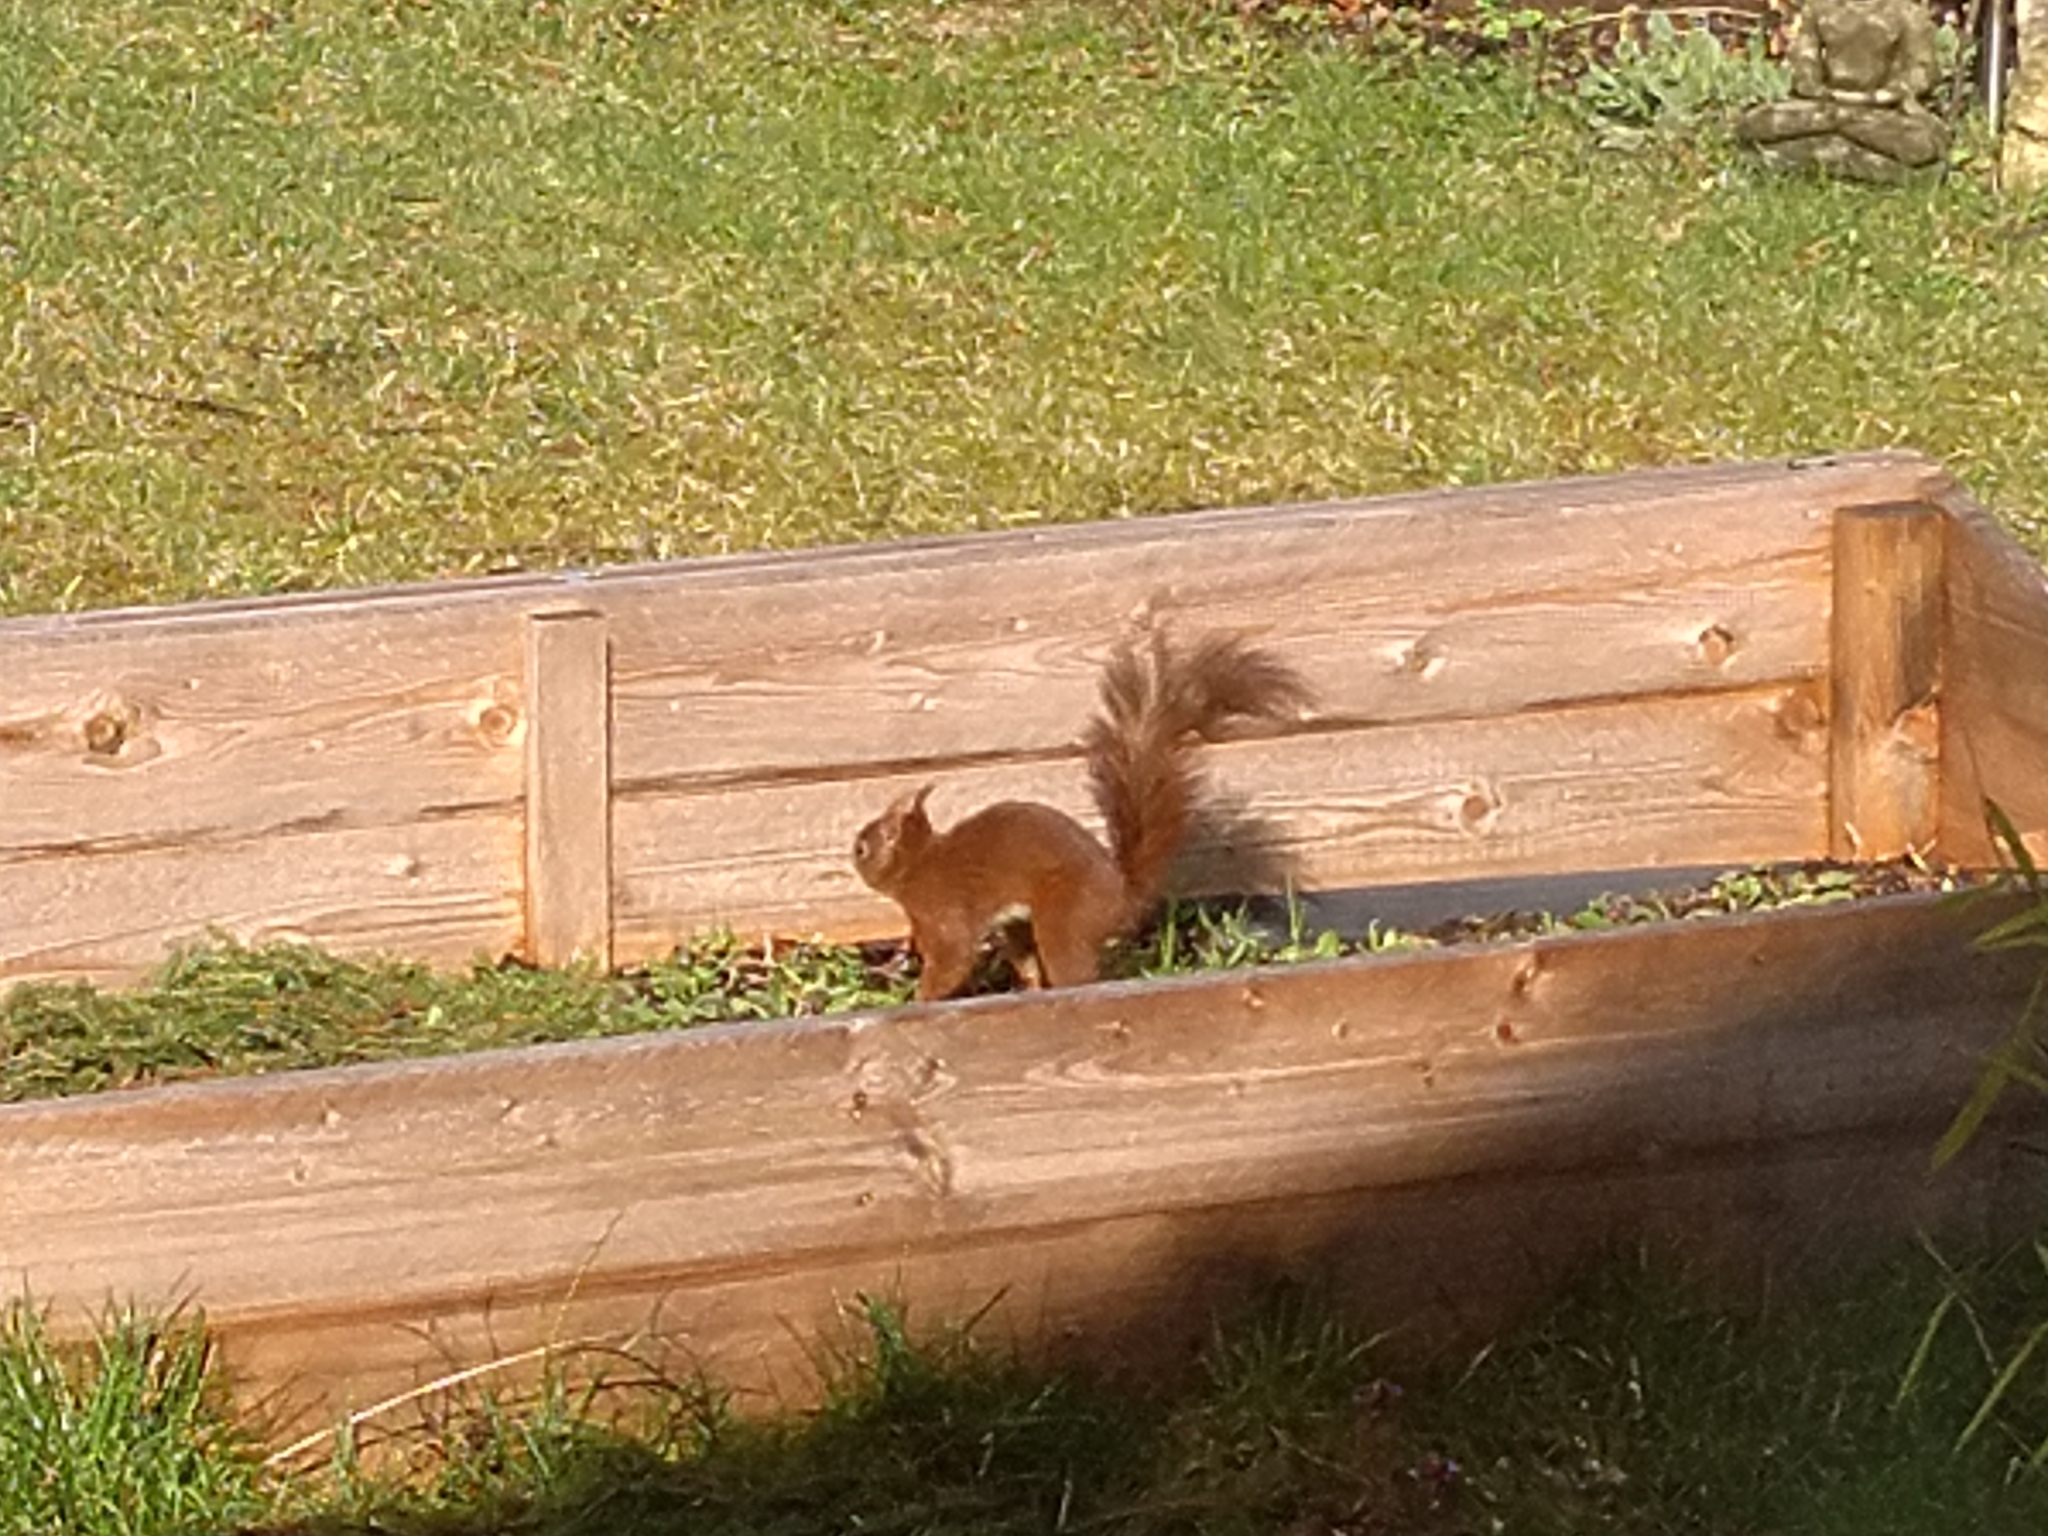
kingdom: Animalia
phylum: Chordata
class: Mammalia
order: Rodentia
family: Sciuridae
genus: Sciurus
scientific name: Sciurus vulgaris
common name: Eurasian red squirrel
